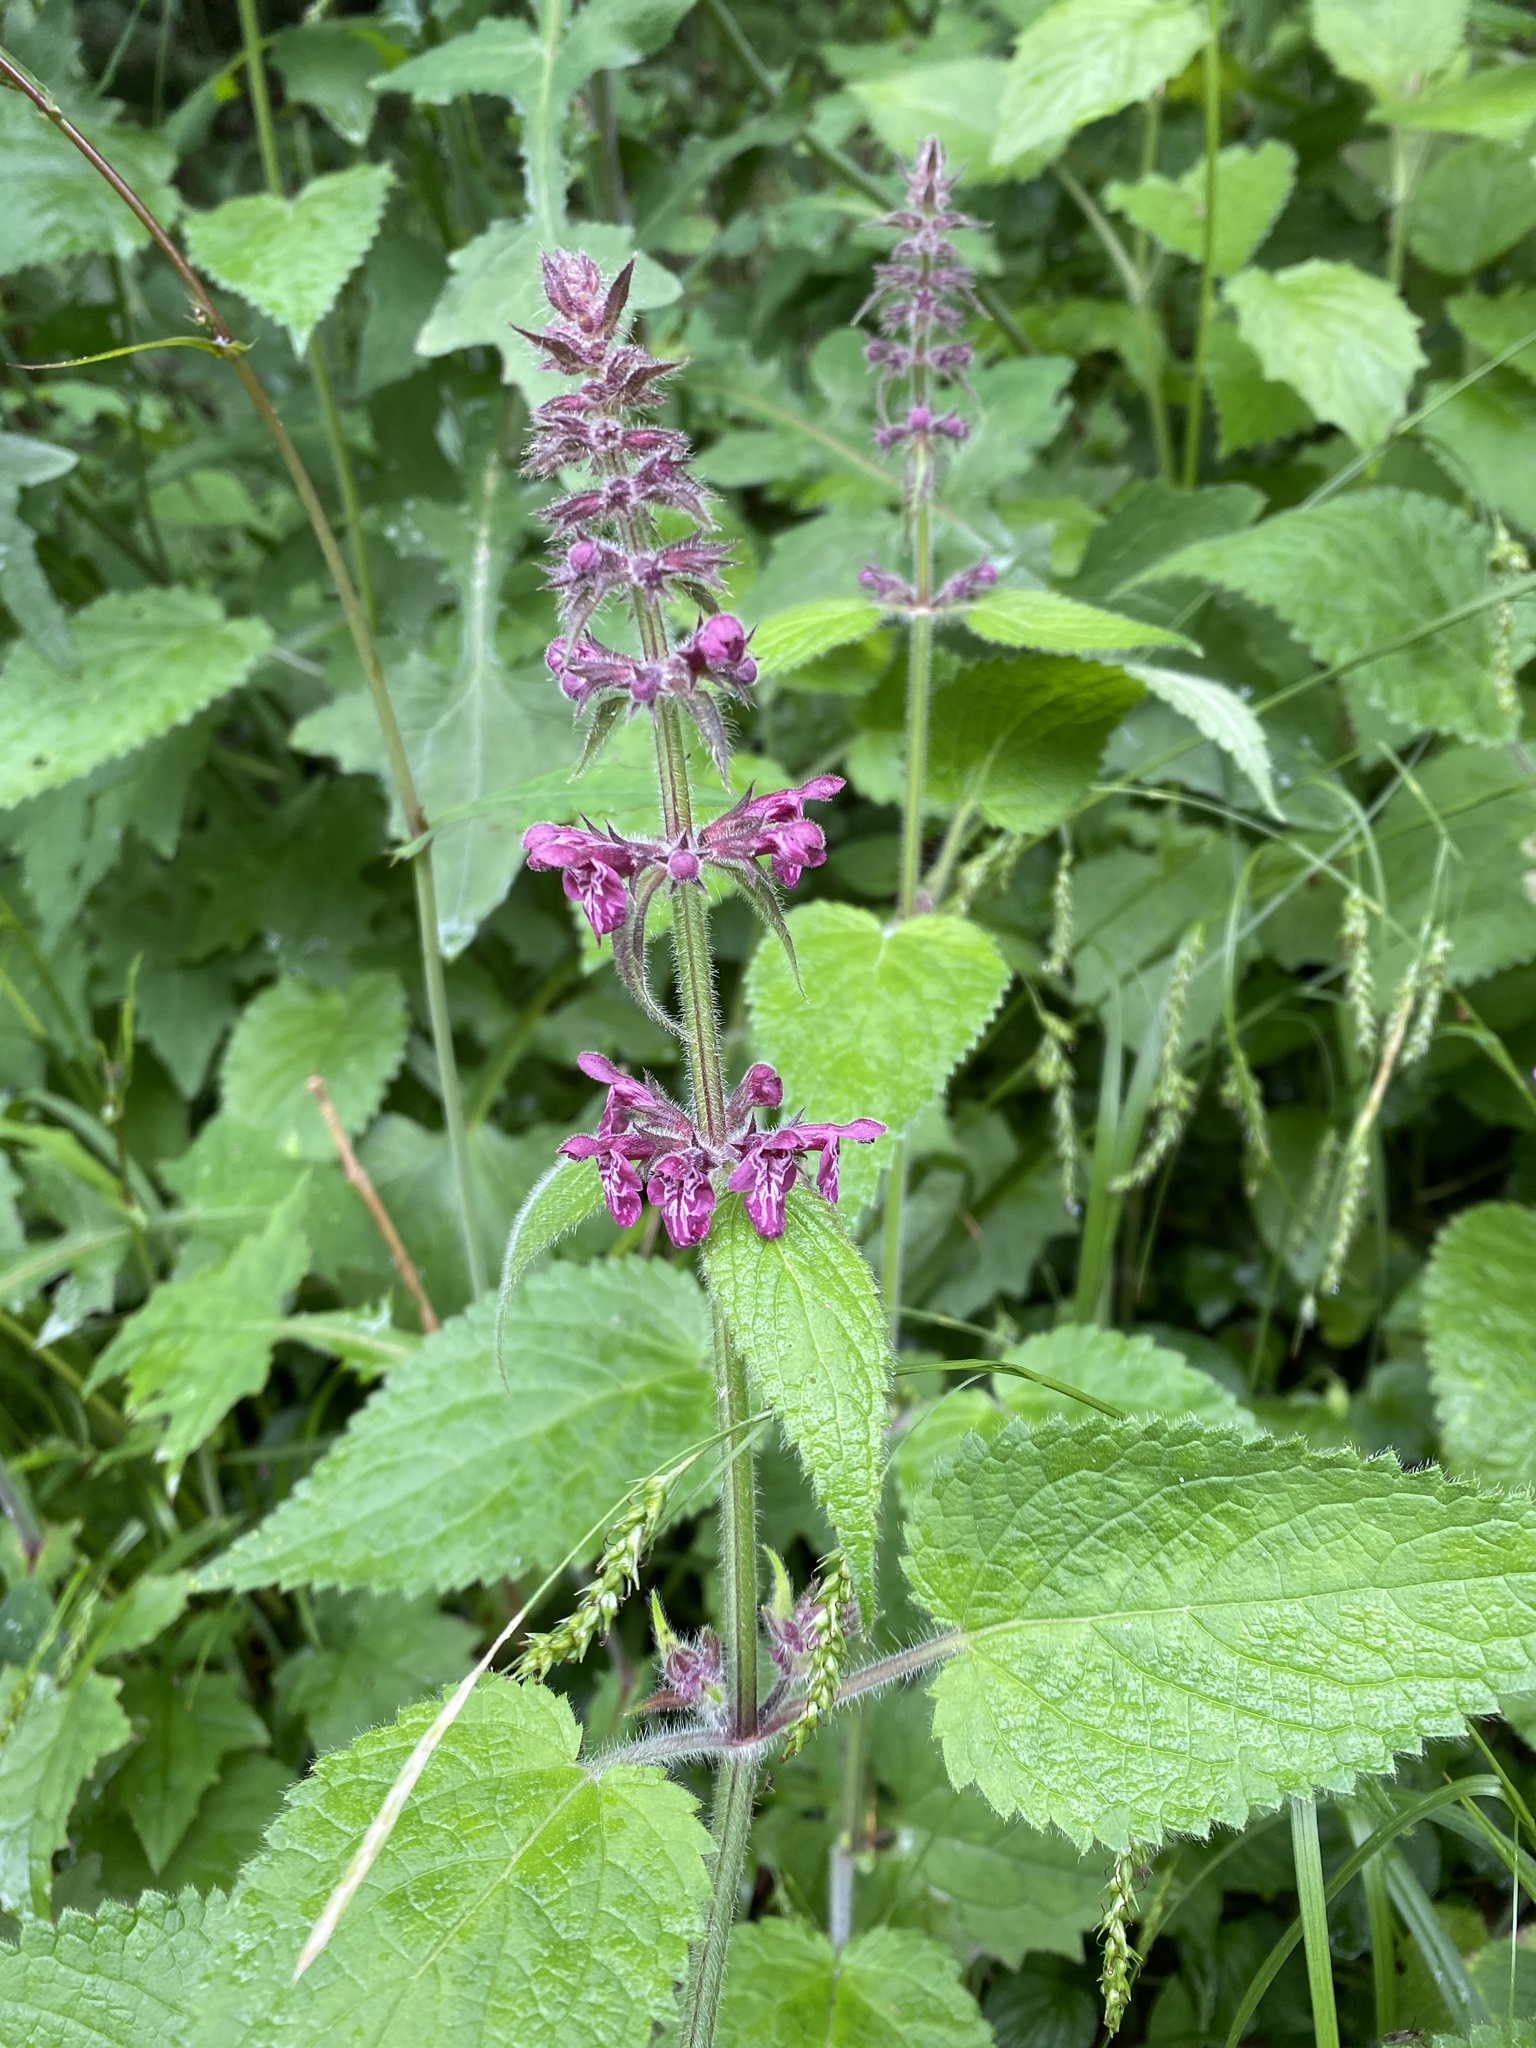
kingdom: Plantae
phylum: Tracheophyta
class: Magnoliopsida
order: Lamiales
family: Lamiaceae
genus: Stachys
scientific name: Stachys sylvatica
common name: Hedge woundwort
